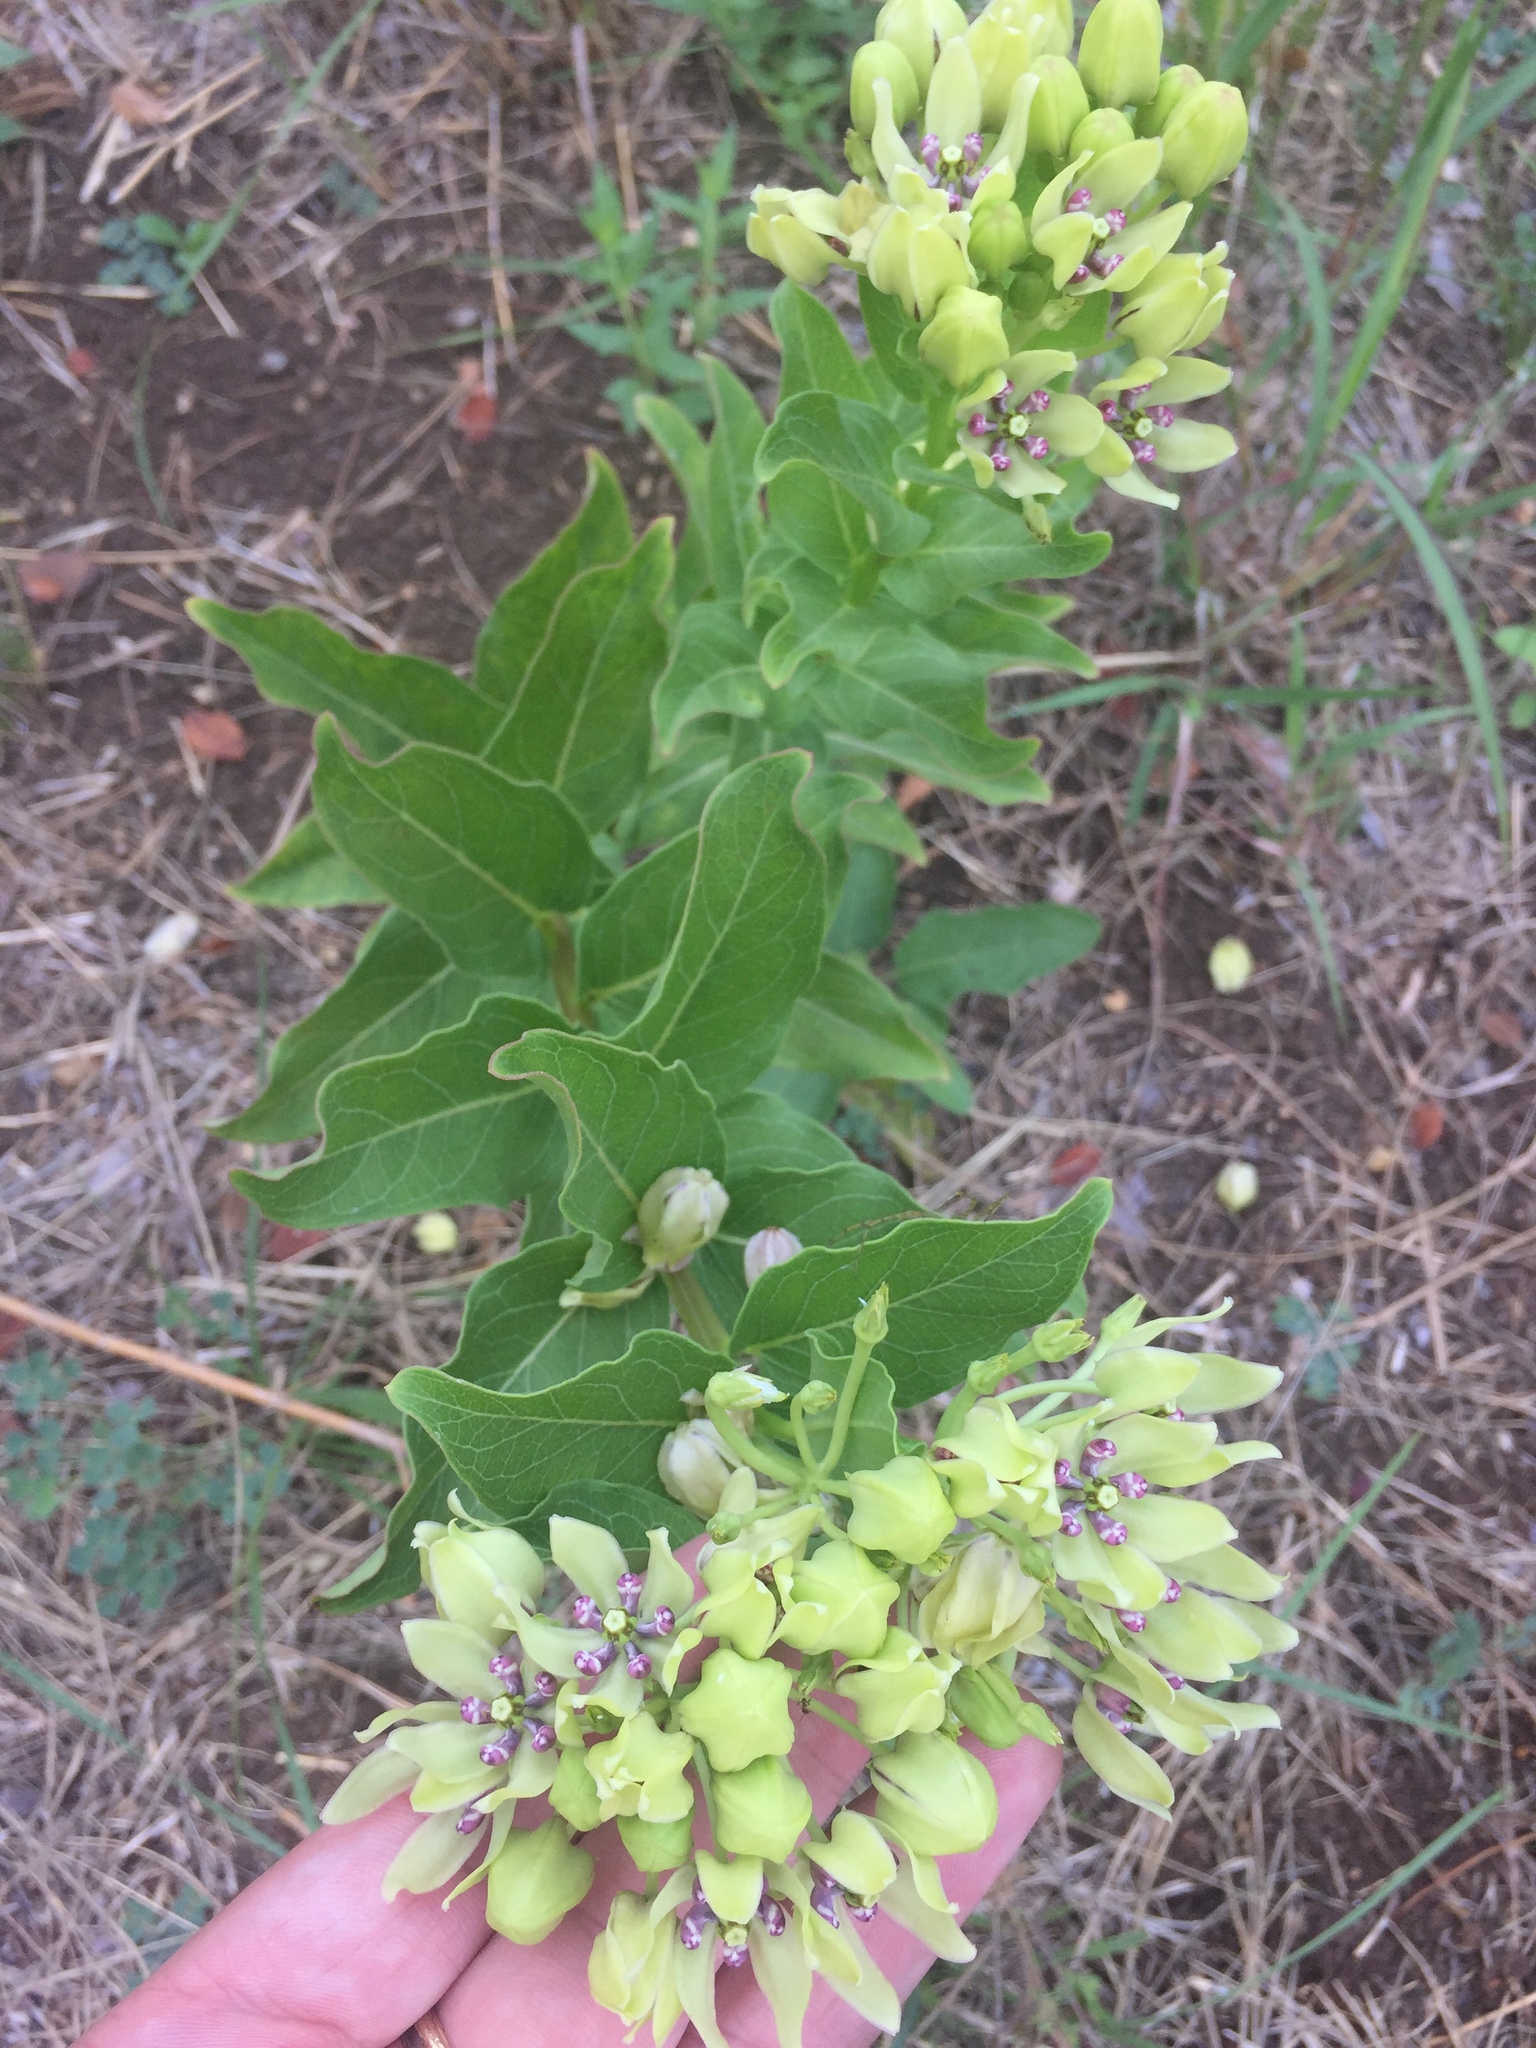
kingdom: Plantae
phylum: Tracheophyta
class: Magnoliopsida
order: Gentianales
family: Apocynaceae
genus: Asclepias
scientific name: Asclepias viridis
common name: Antelope-horns
